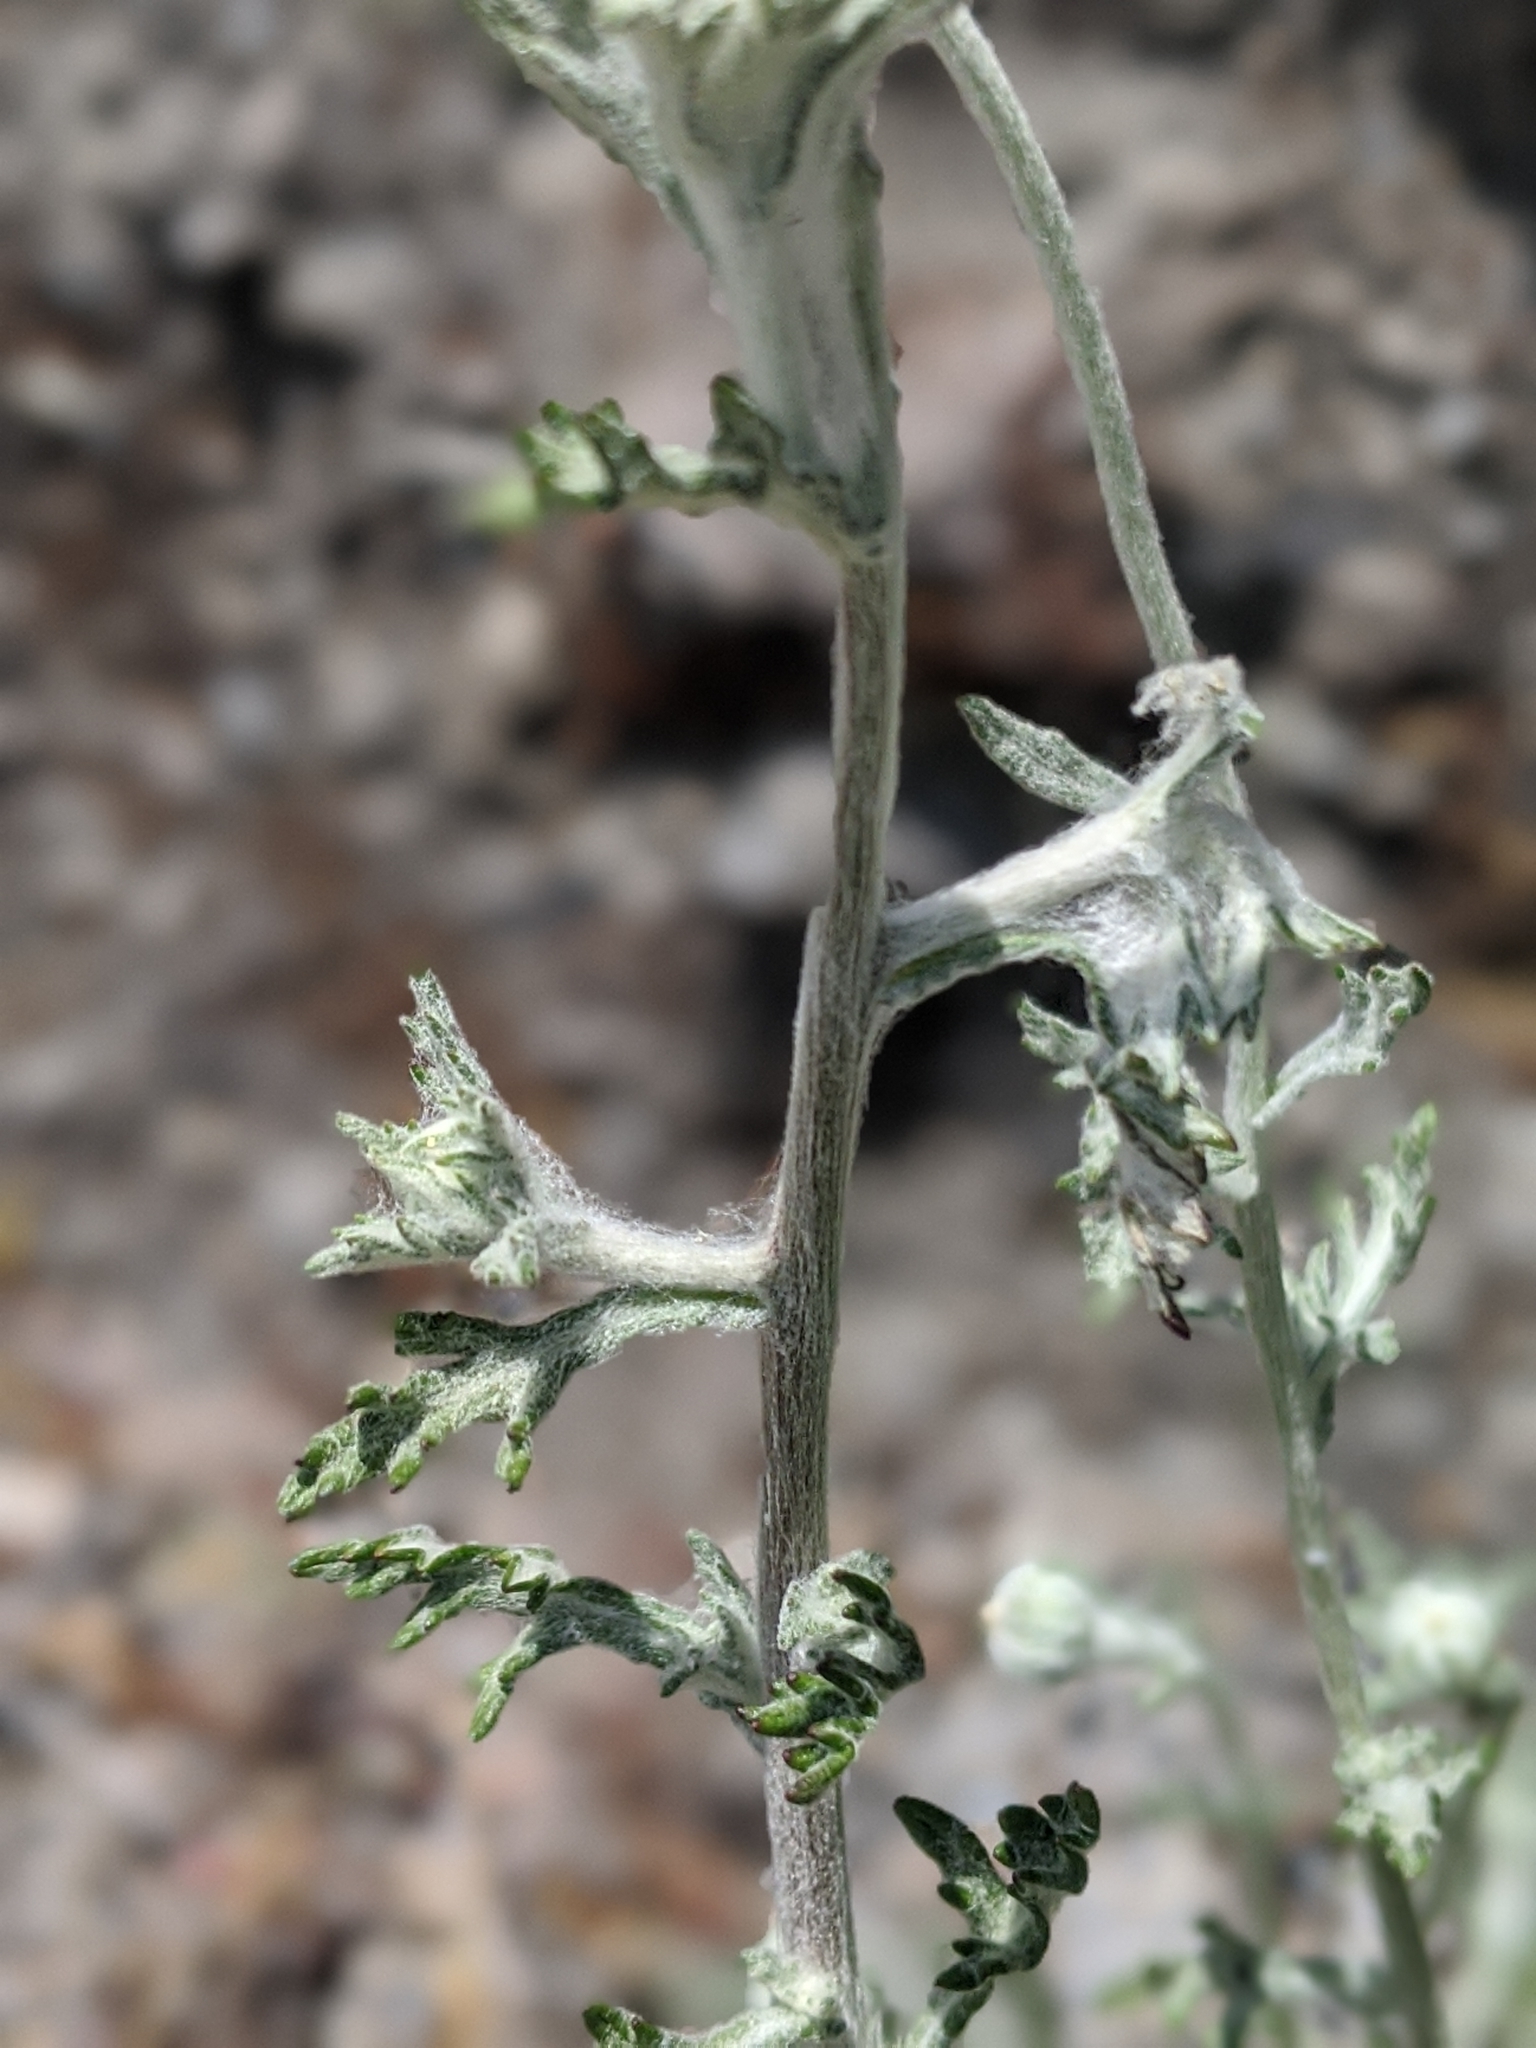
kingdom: Plantae
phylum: Tracheophyta
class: Magnoliopsida
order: Asterales
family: Asteraceae
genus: Eriophyllum
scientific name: Eriophyllum lanatum
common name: Common woolly-sunflower
